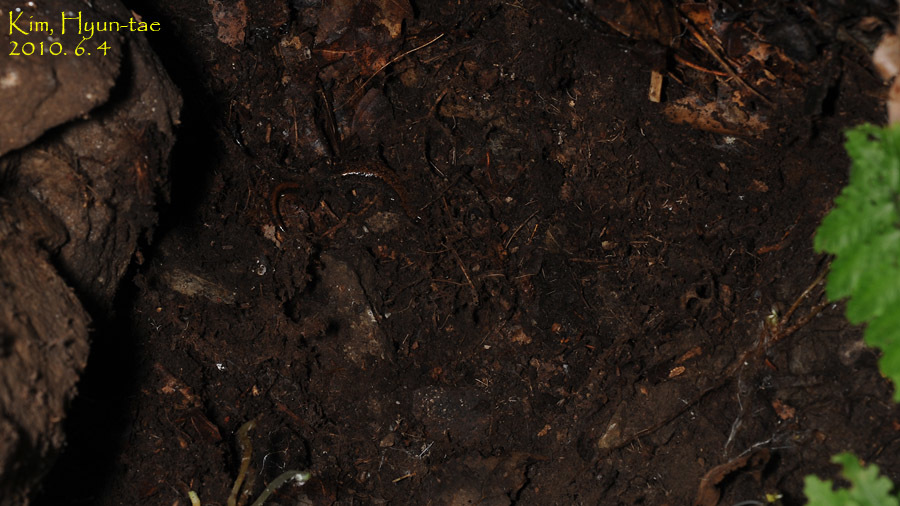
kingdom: Animalia
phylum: Chordata
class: Amphibia
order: Caudata
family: Plethodontidae
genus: Karsenia
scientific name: Karsenia koreana
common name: Korean crevice salamander
